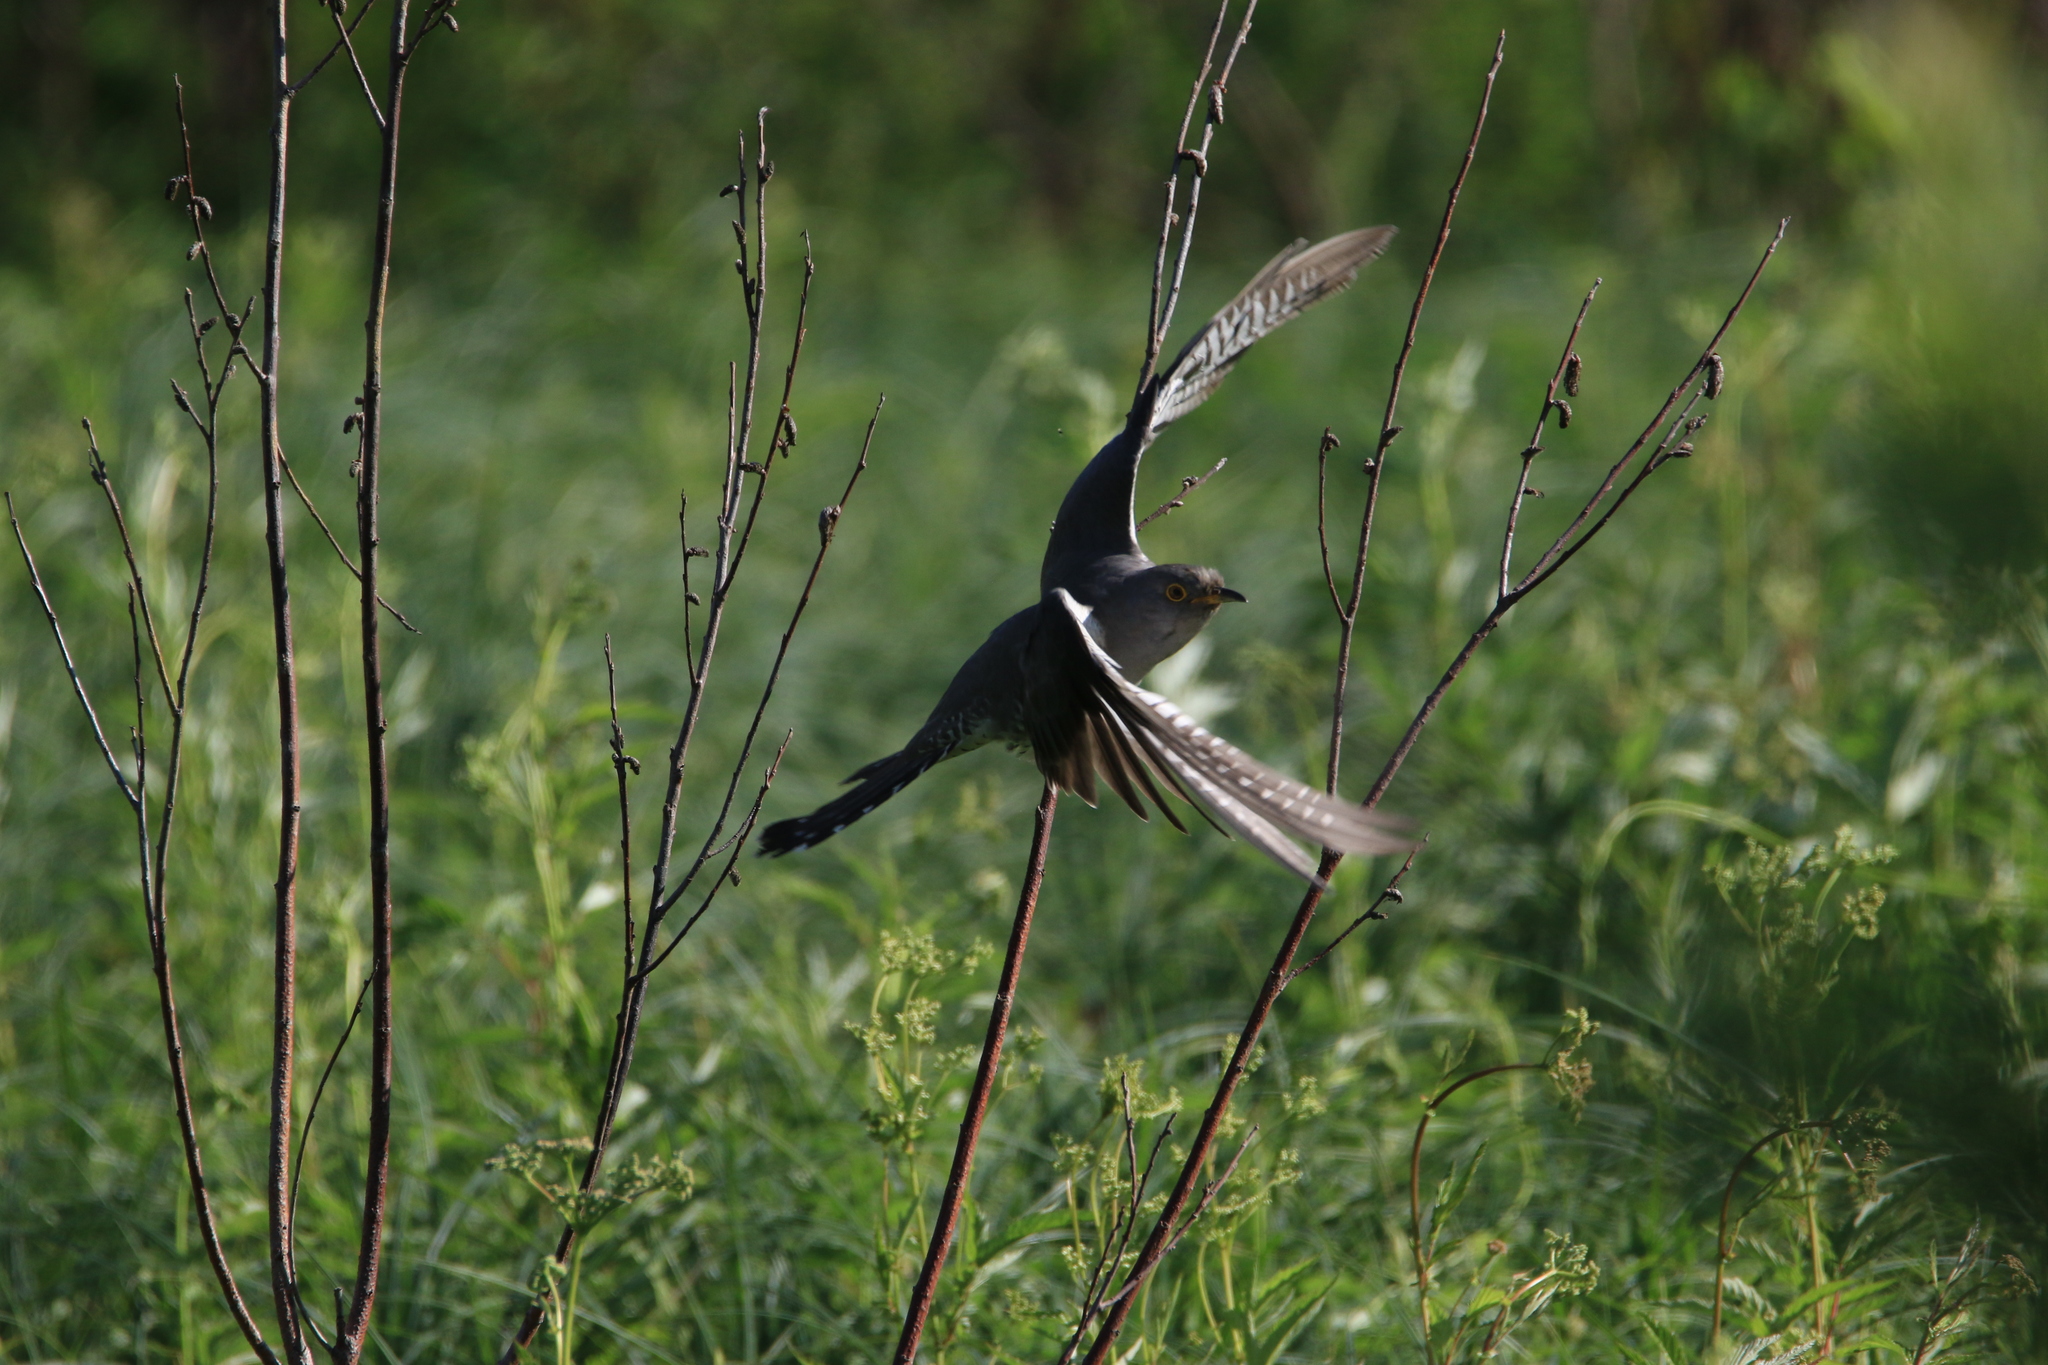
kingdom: Animalia
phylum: Chordata
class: Aves
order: Cuculiformes
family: Cuculidae
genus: Cuculus
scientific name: Cuculus canorus
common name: Common cuckoo
